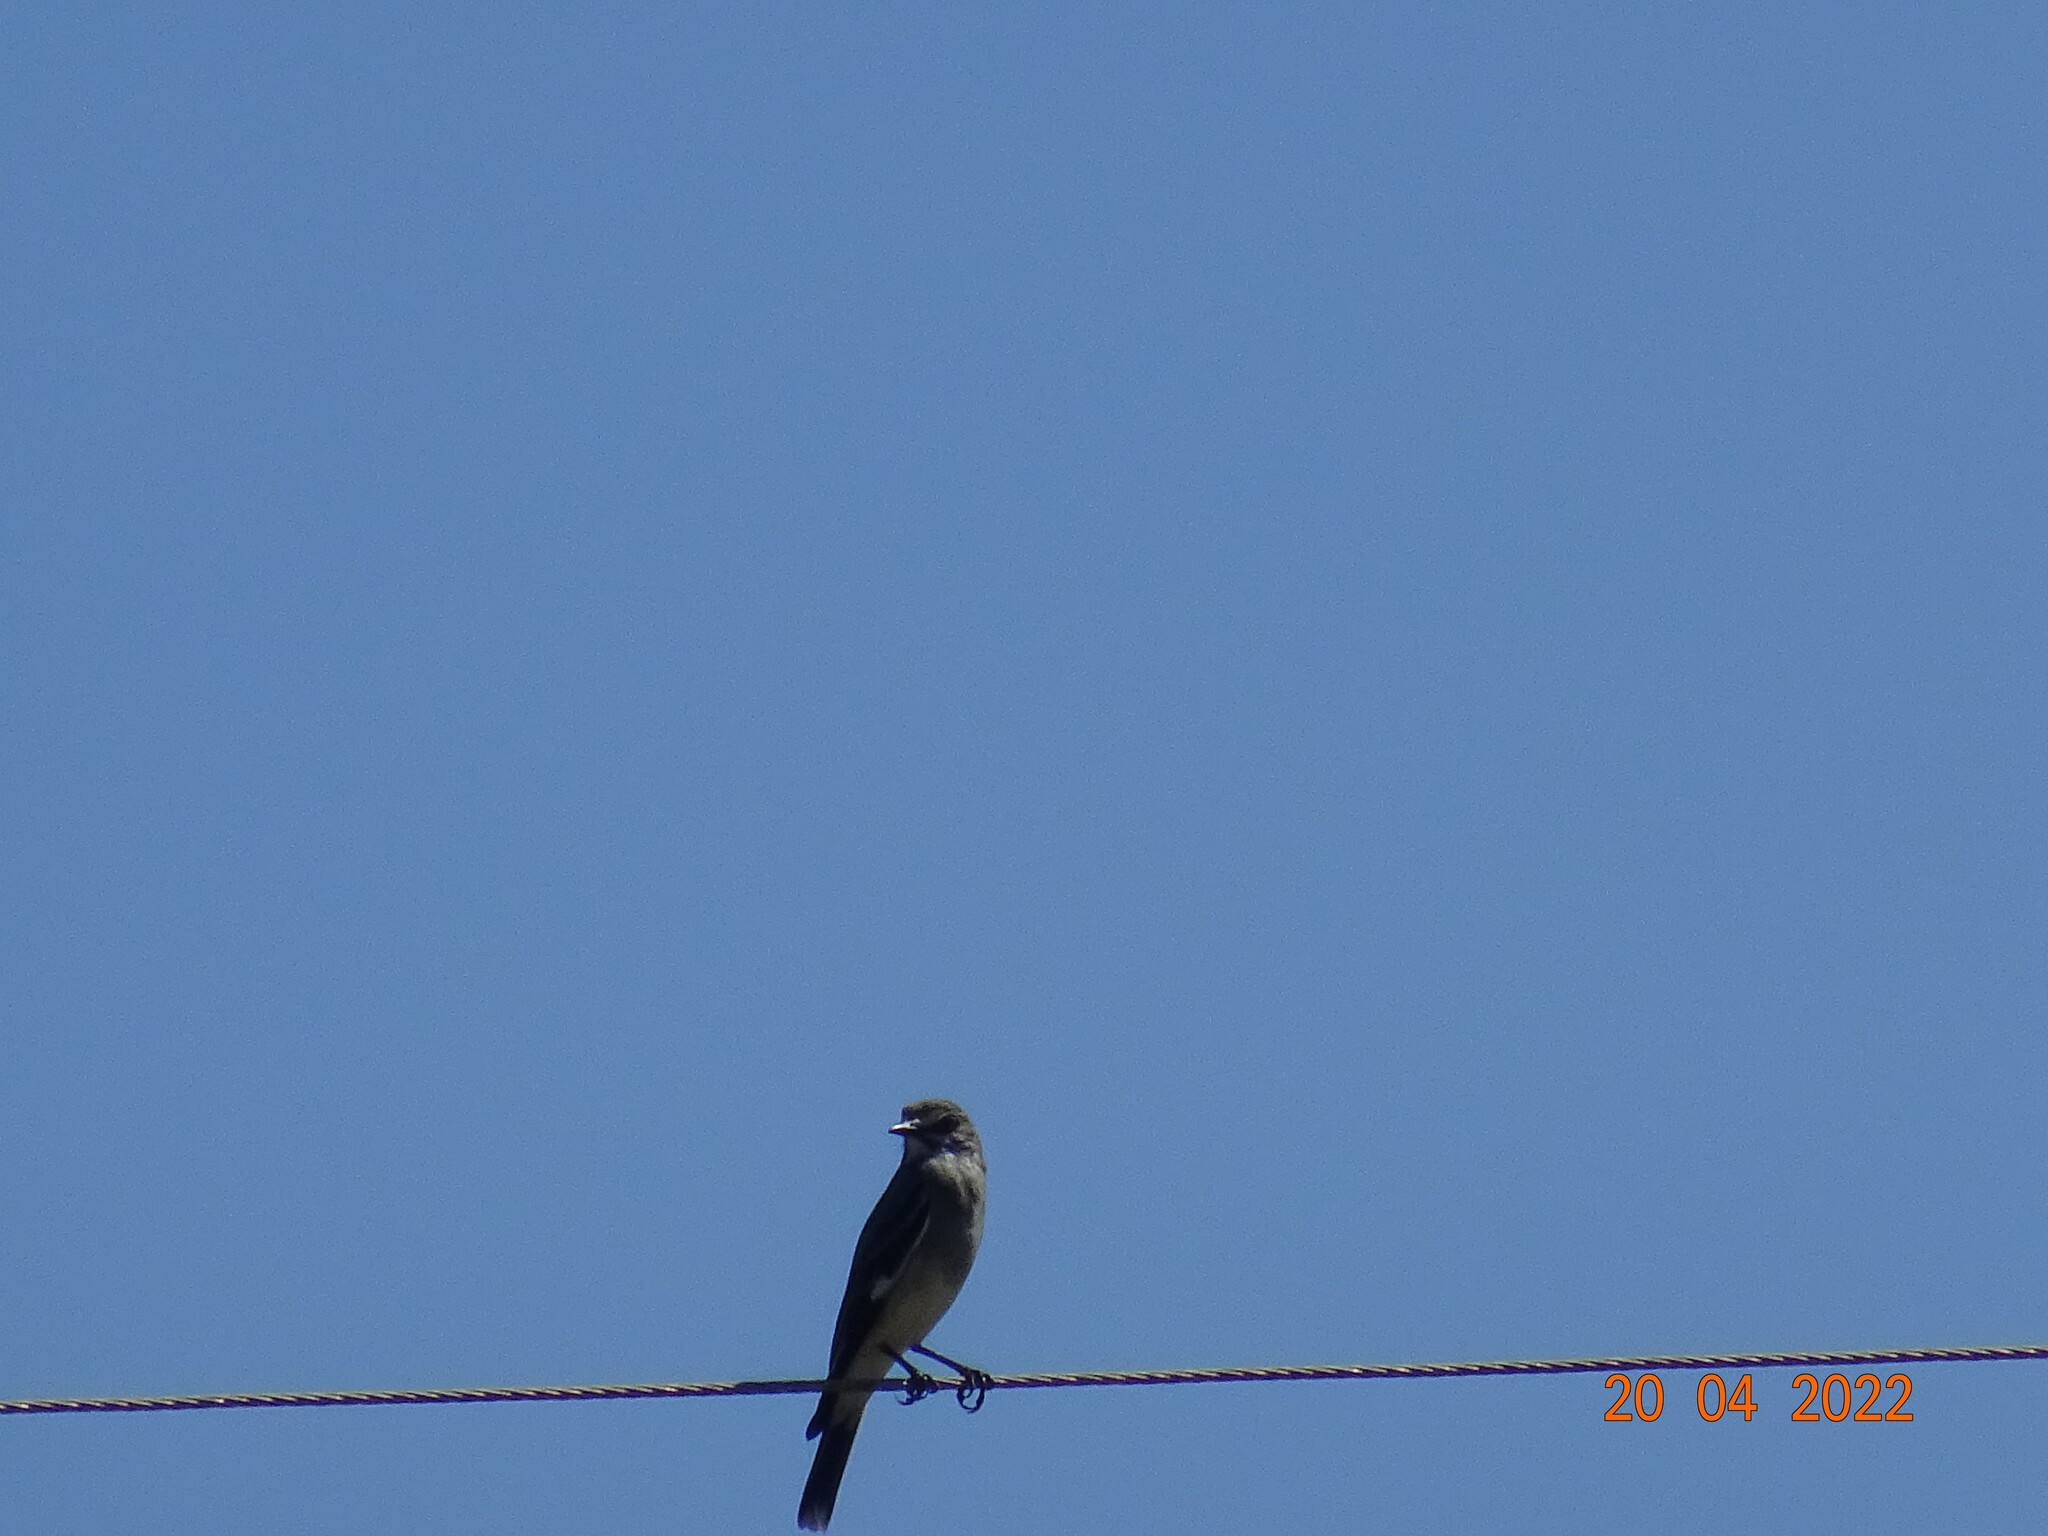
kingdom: Animalia
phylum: Chordata
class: Aves
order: Passeriformes
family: Tyrannidae
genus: Xolmis
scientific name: Xolmis cinereus
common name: Grey monjita
